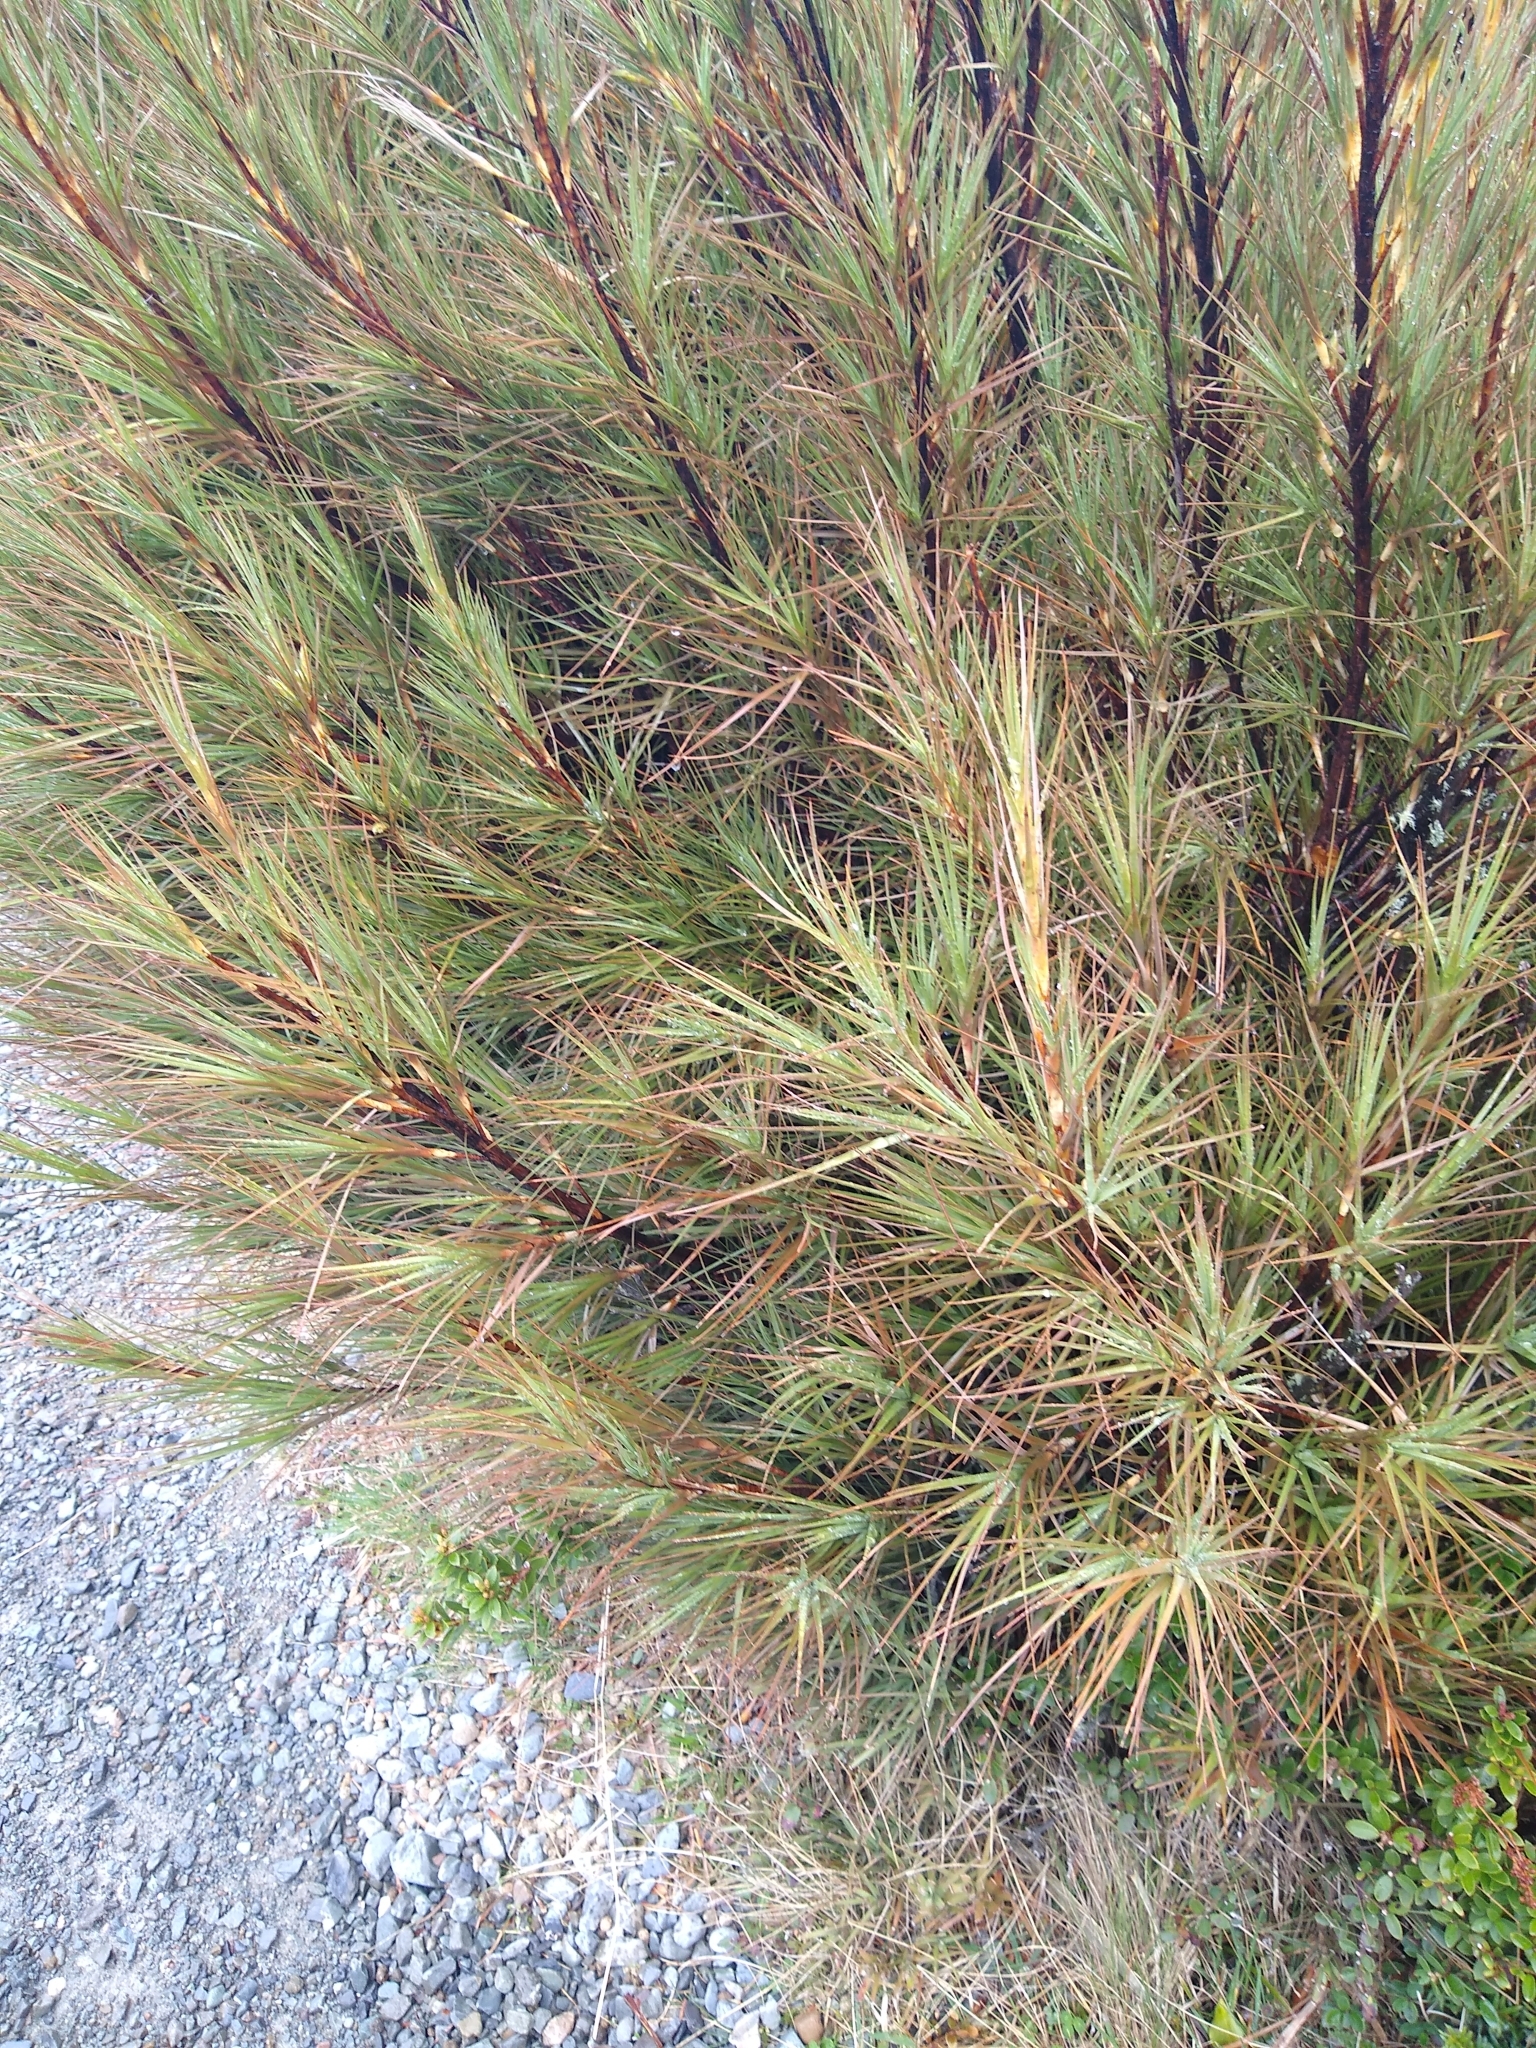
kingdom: Plantae
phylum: Tracheophyta
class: Magnoliopsida
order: Ericales
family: Ericaceae
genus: Dracophyllum
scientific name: Dracophyllum longifolium
